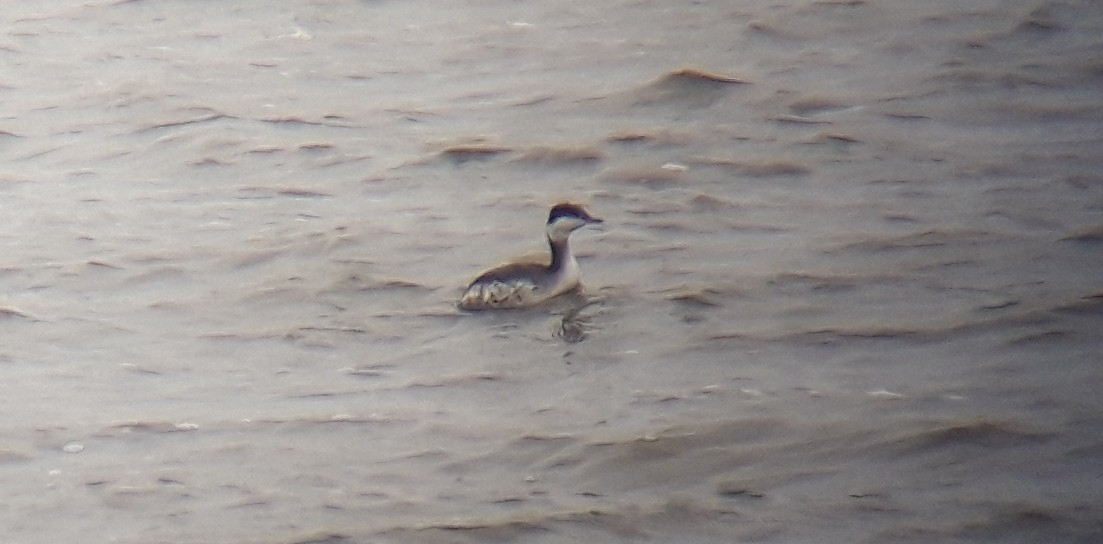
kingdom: Animalia
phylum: Chordata
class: Aves
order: Podicipediformes
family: Podicipedidae
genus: Podiceps
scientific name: Podiceps auritus
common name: Horned grebe
